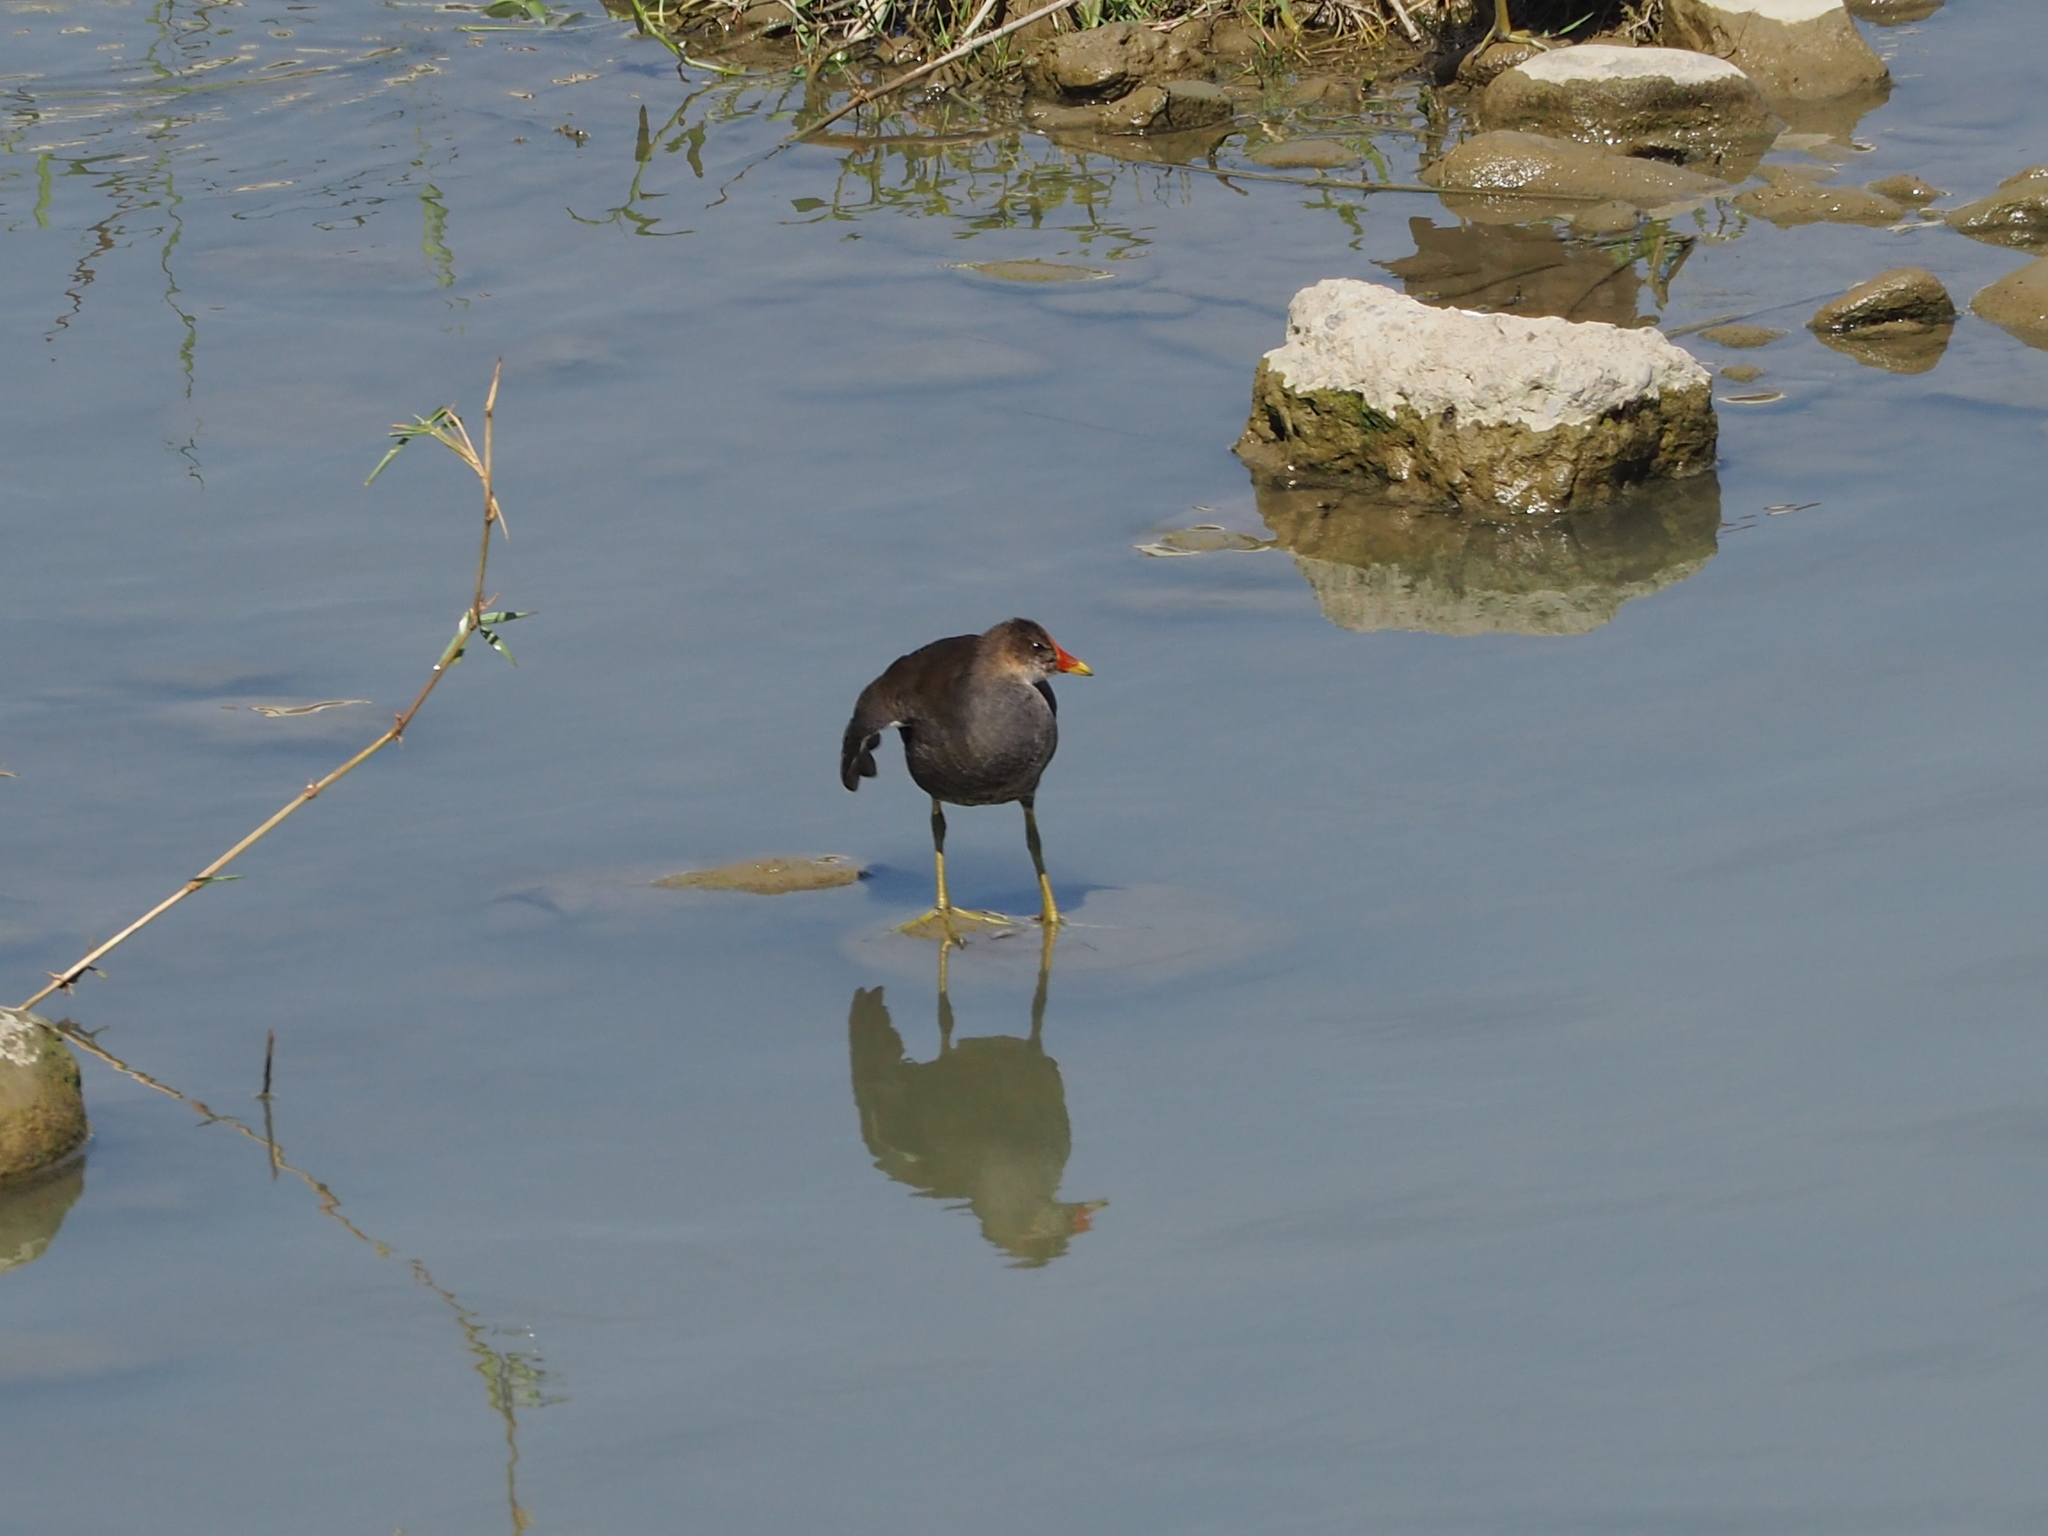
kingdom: Animalia
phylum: Chordata
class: Aves
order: Gruiformes
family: Rallidae
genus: Gallinula
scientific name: Gallinula chloropus
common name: Common moorhen
